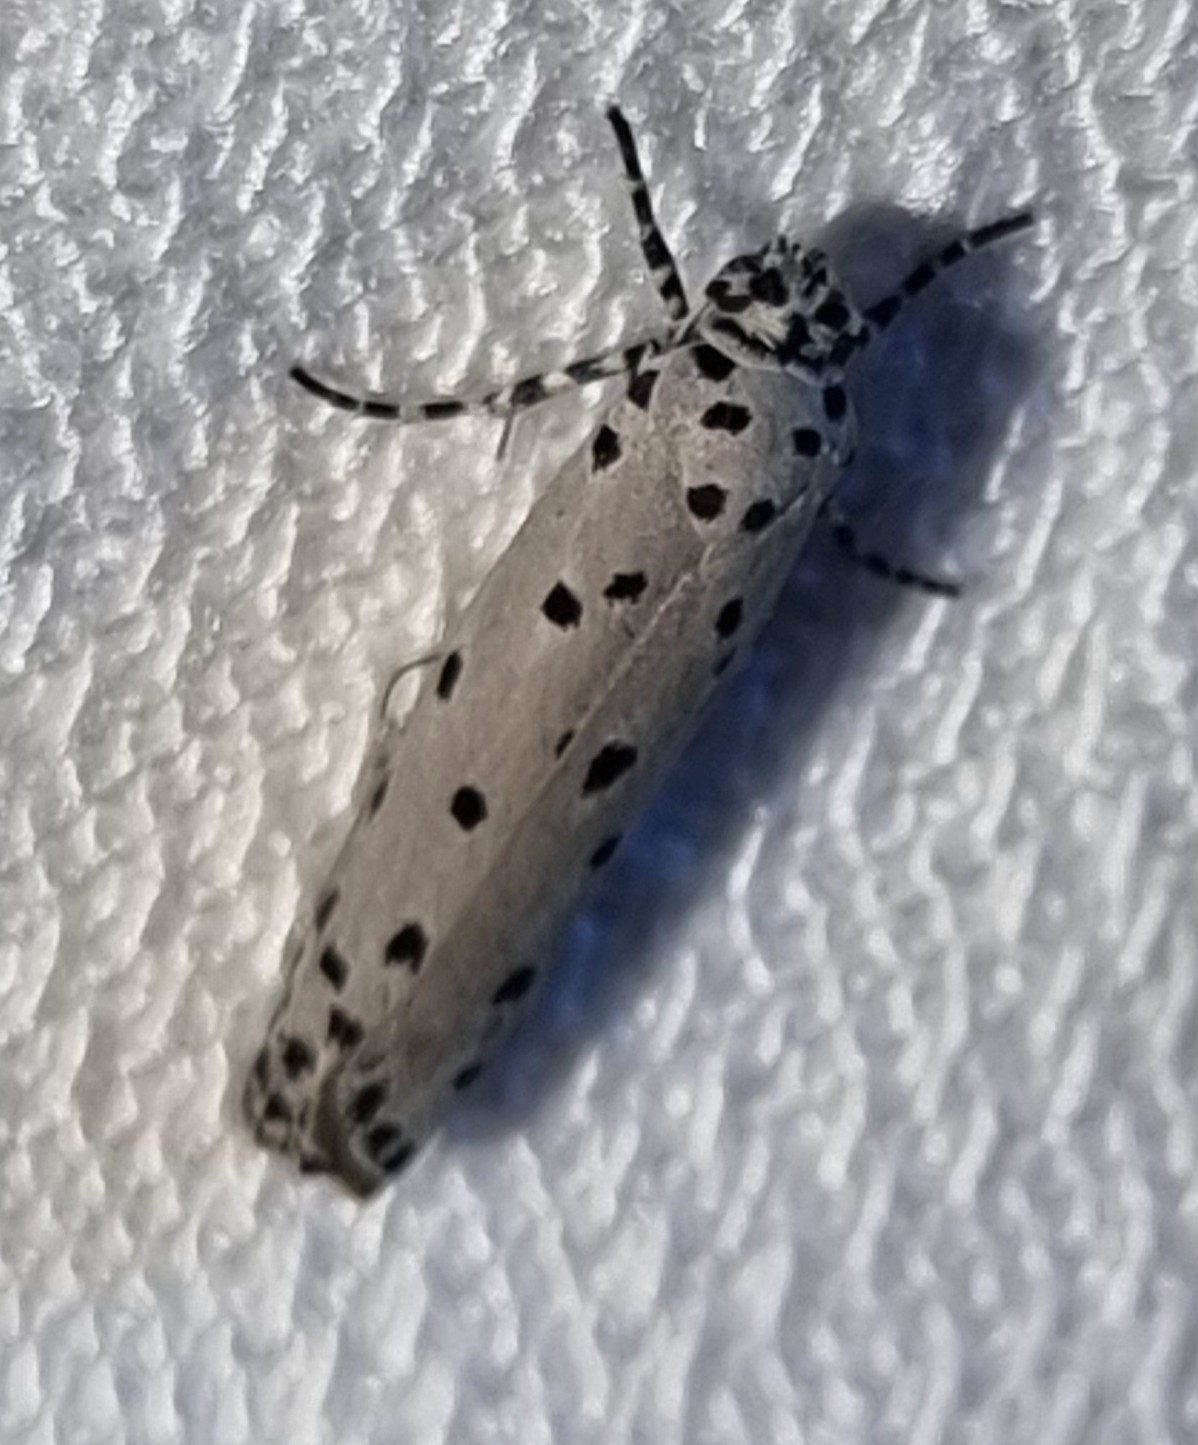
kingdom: Animalia
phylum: Arthropoda
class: Insecta
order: Lepidoptera
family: Ethmiidae
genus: Ethmia
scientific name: Ethmia praeclara
